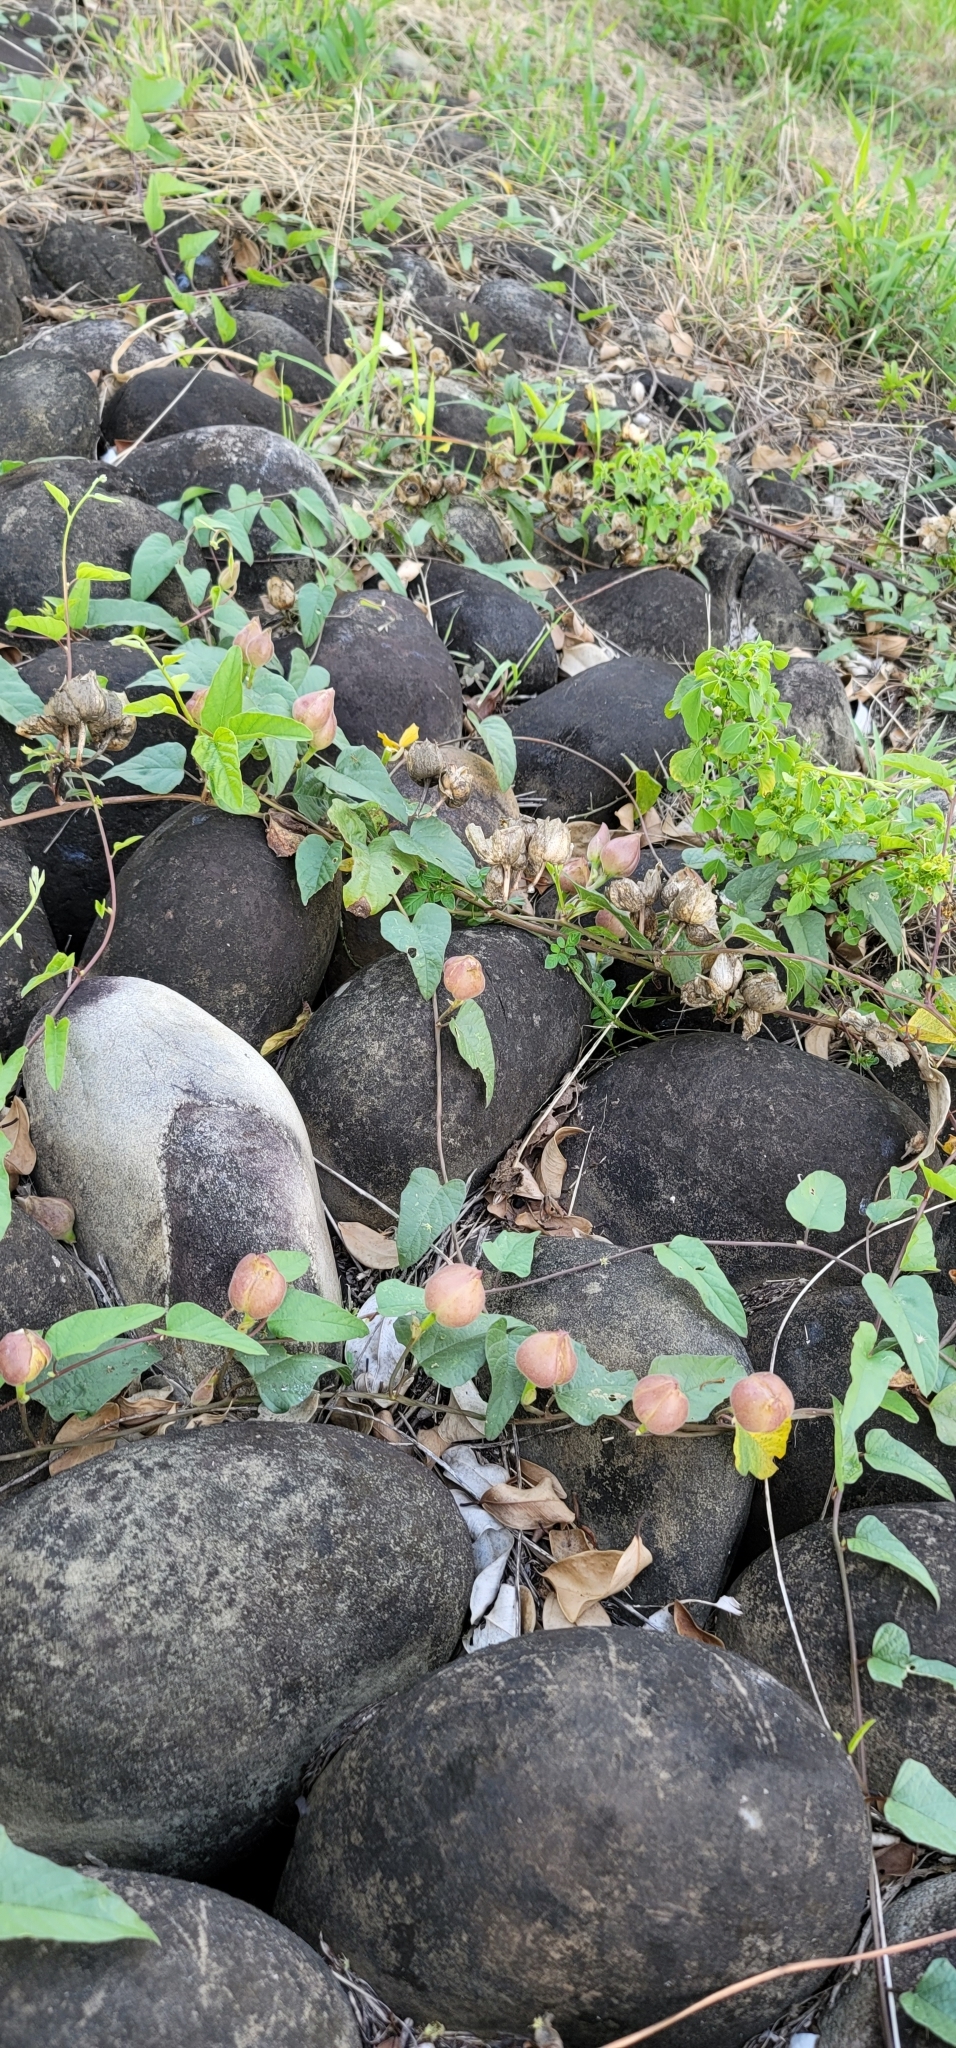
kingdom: Plantae
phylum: Tracheophyta
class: Magnoliopsida
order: Solanales
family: Convolvulaceae
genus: Operculina
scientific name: Operculina turpethum
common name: Transparent wood-rose
